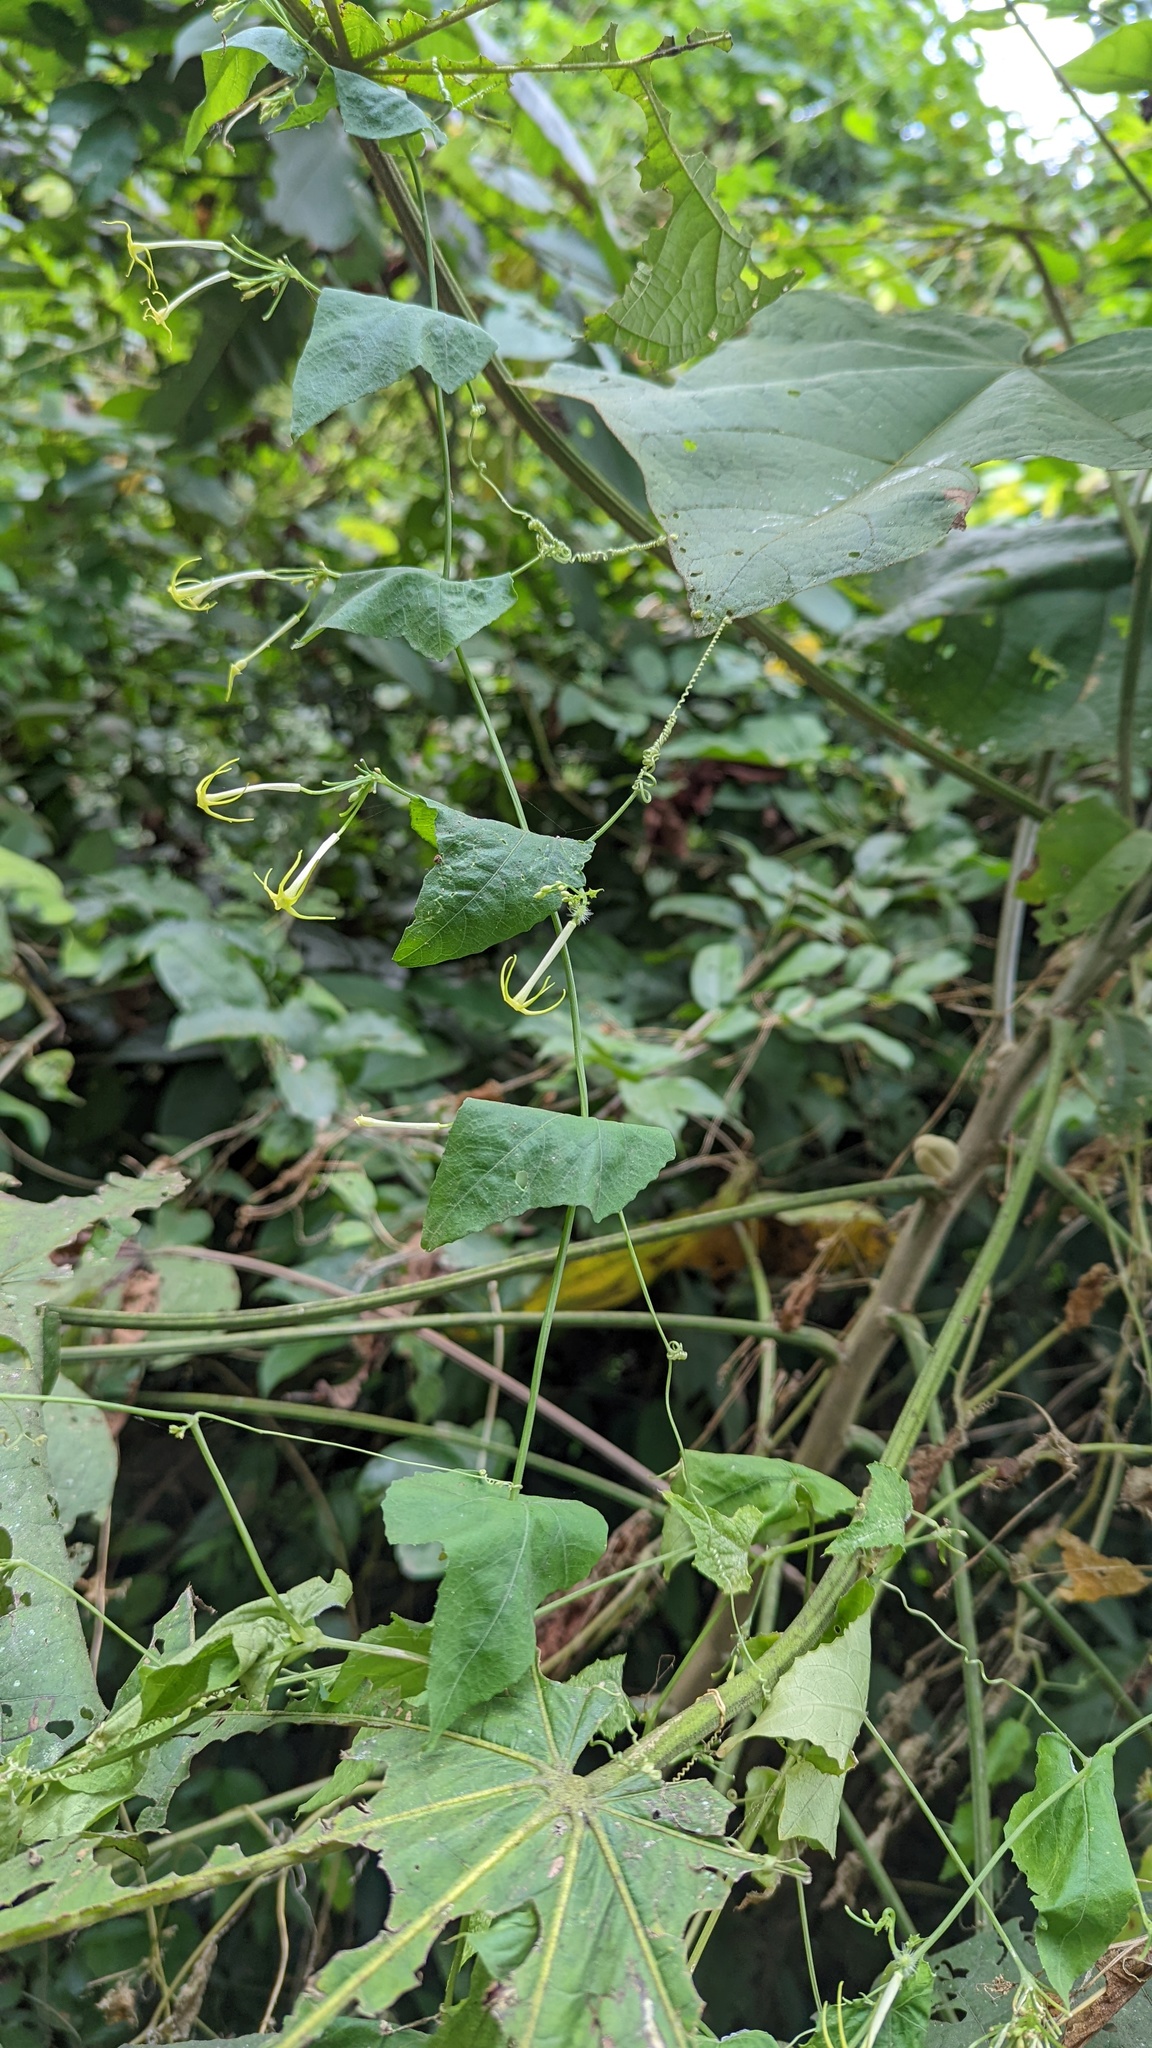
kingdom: Plantae
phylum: Tracheophyta
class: Magnoliopsida
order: Cucurbitales
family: Cucurbitaceae
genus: Cyclanthera
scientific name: Cyclanthera carthagenensis
